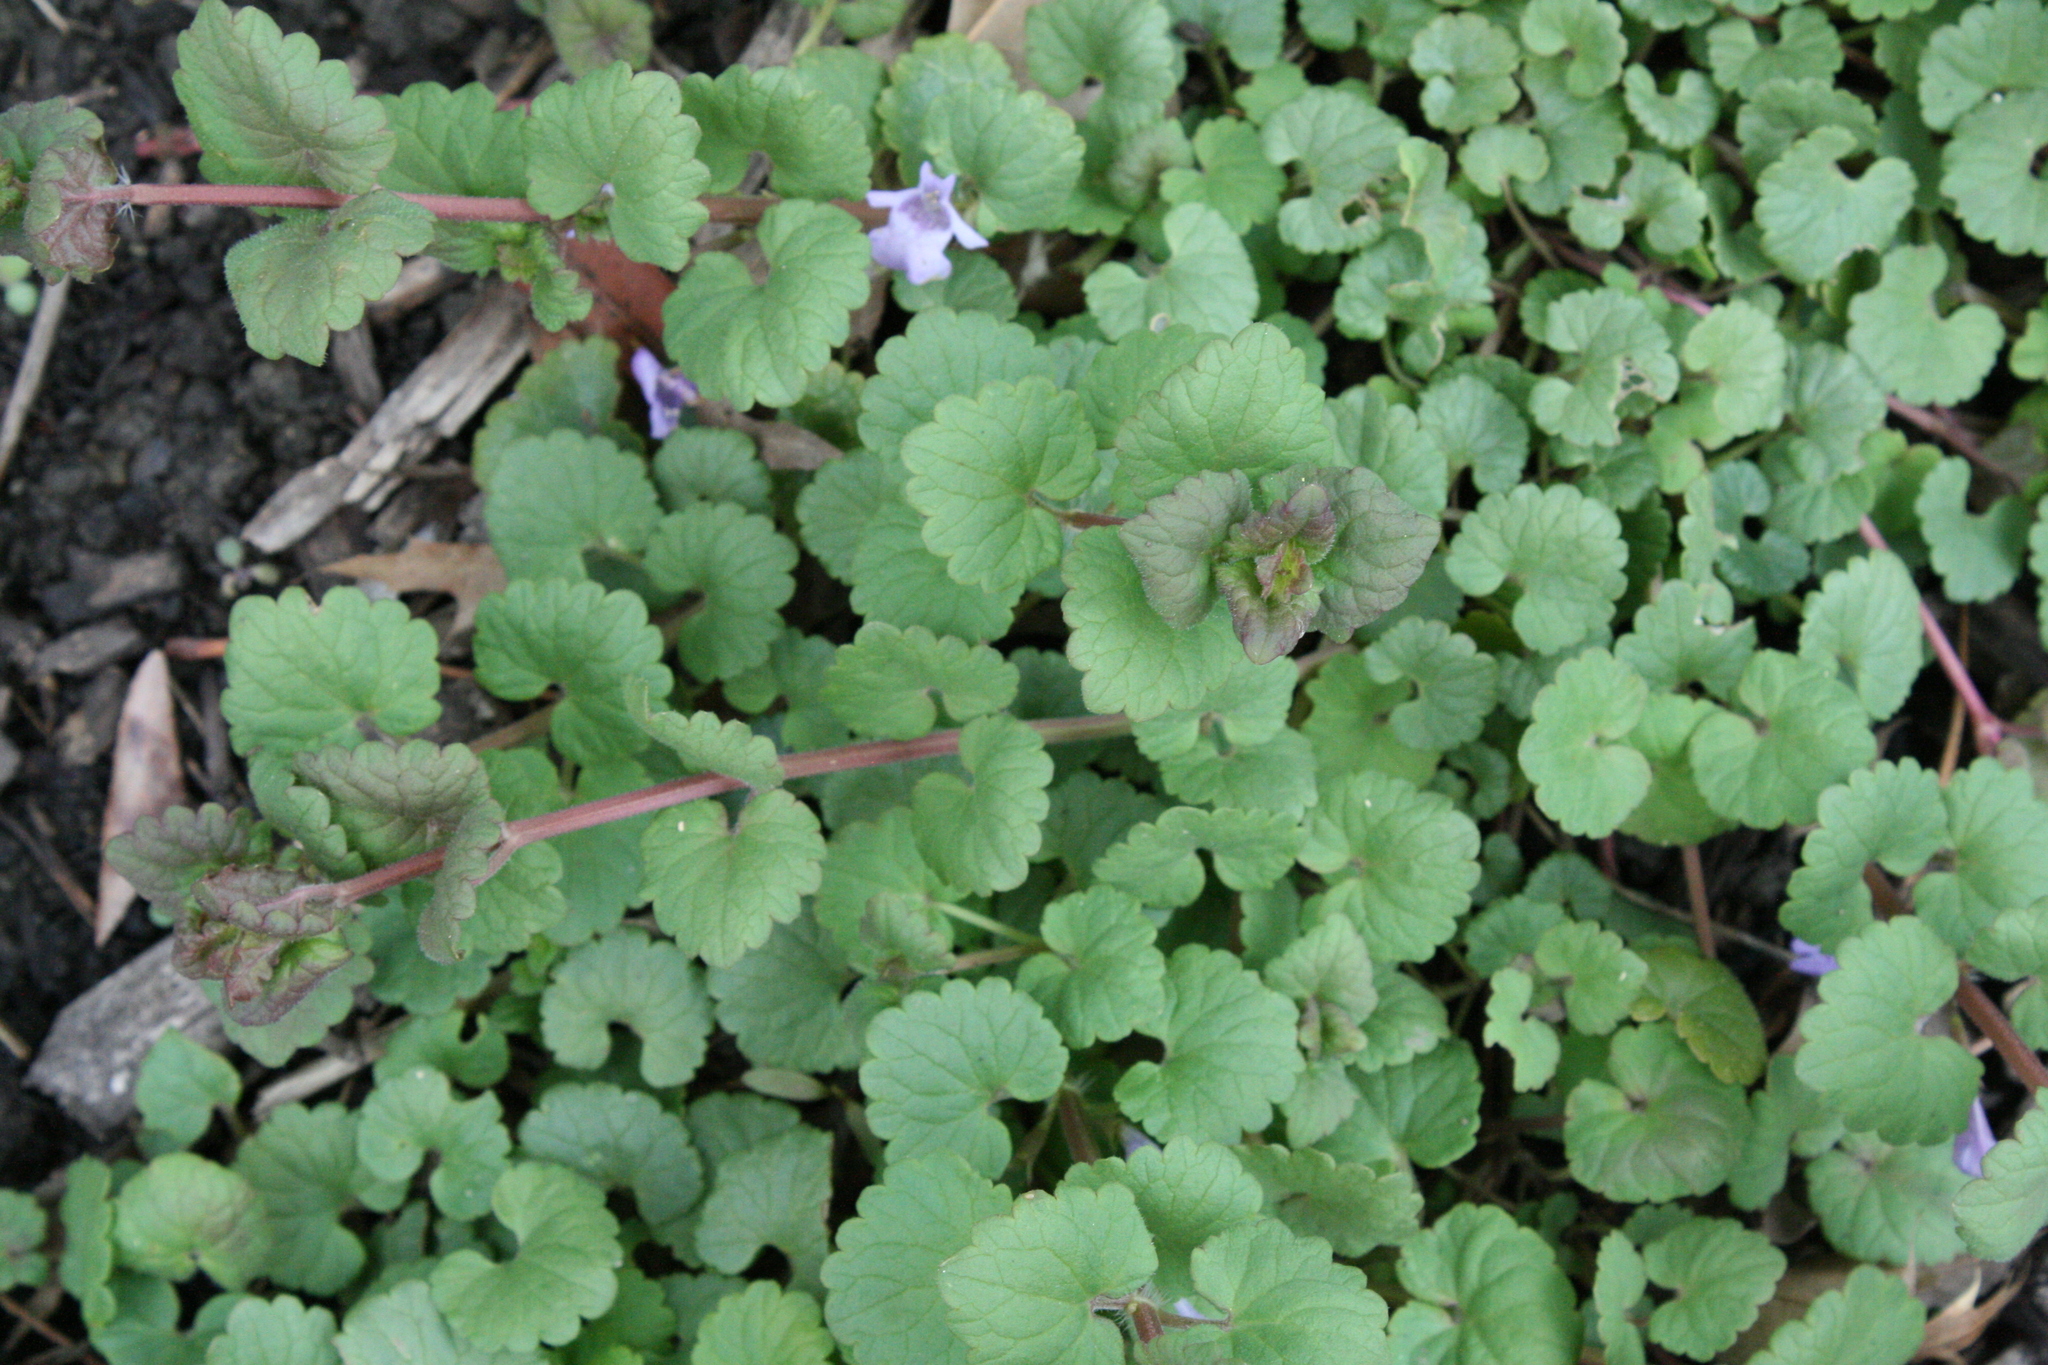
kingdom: Plantae
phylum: Tracheophyta
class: Magnoliopsida
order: Lamiales
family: Lamiaceae
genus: Glechoma
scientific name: Glechoma hederacea
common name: Ground ivy
